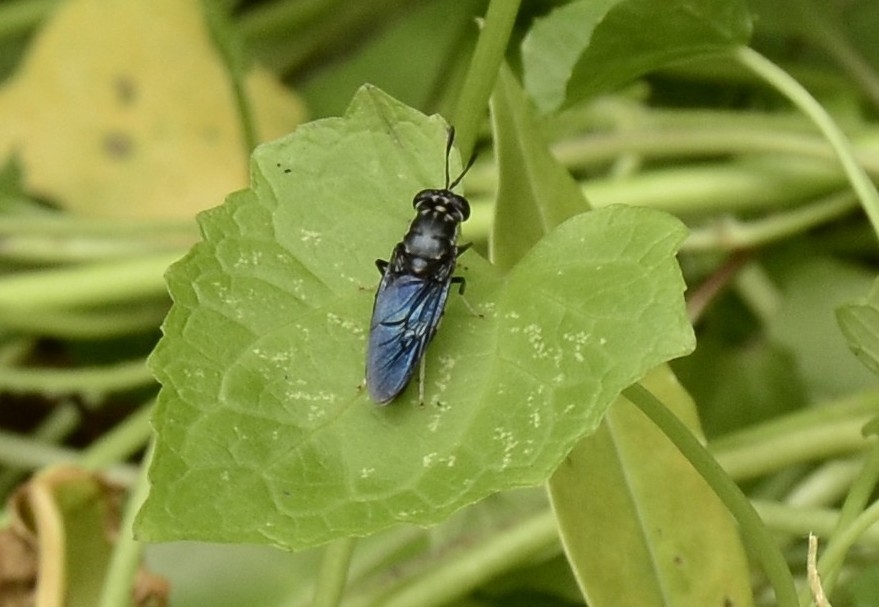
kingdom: Animalia
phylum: Arthropoda
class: Insecta
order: Diptera
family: Stratiomyidae
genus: Hermetia
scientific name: Hermetia illucens
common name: Black soldier fly
